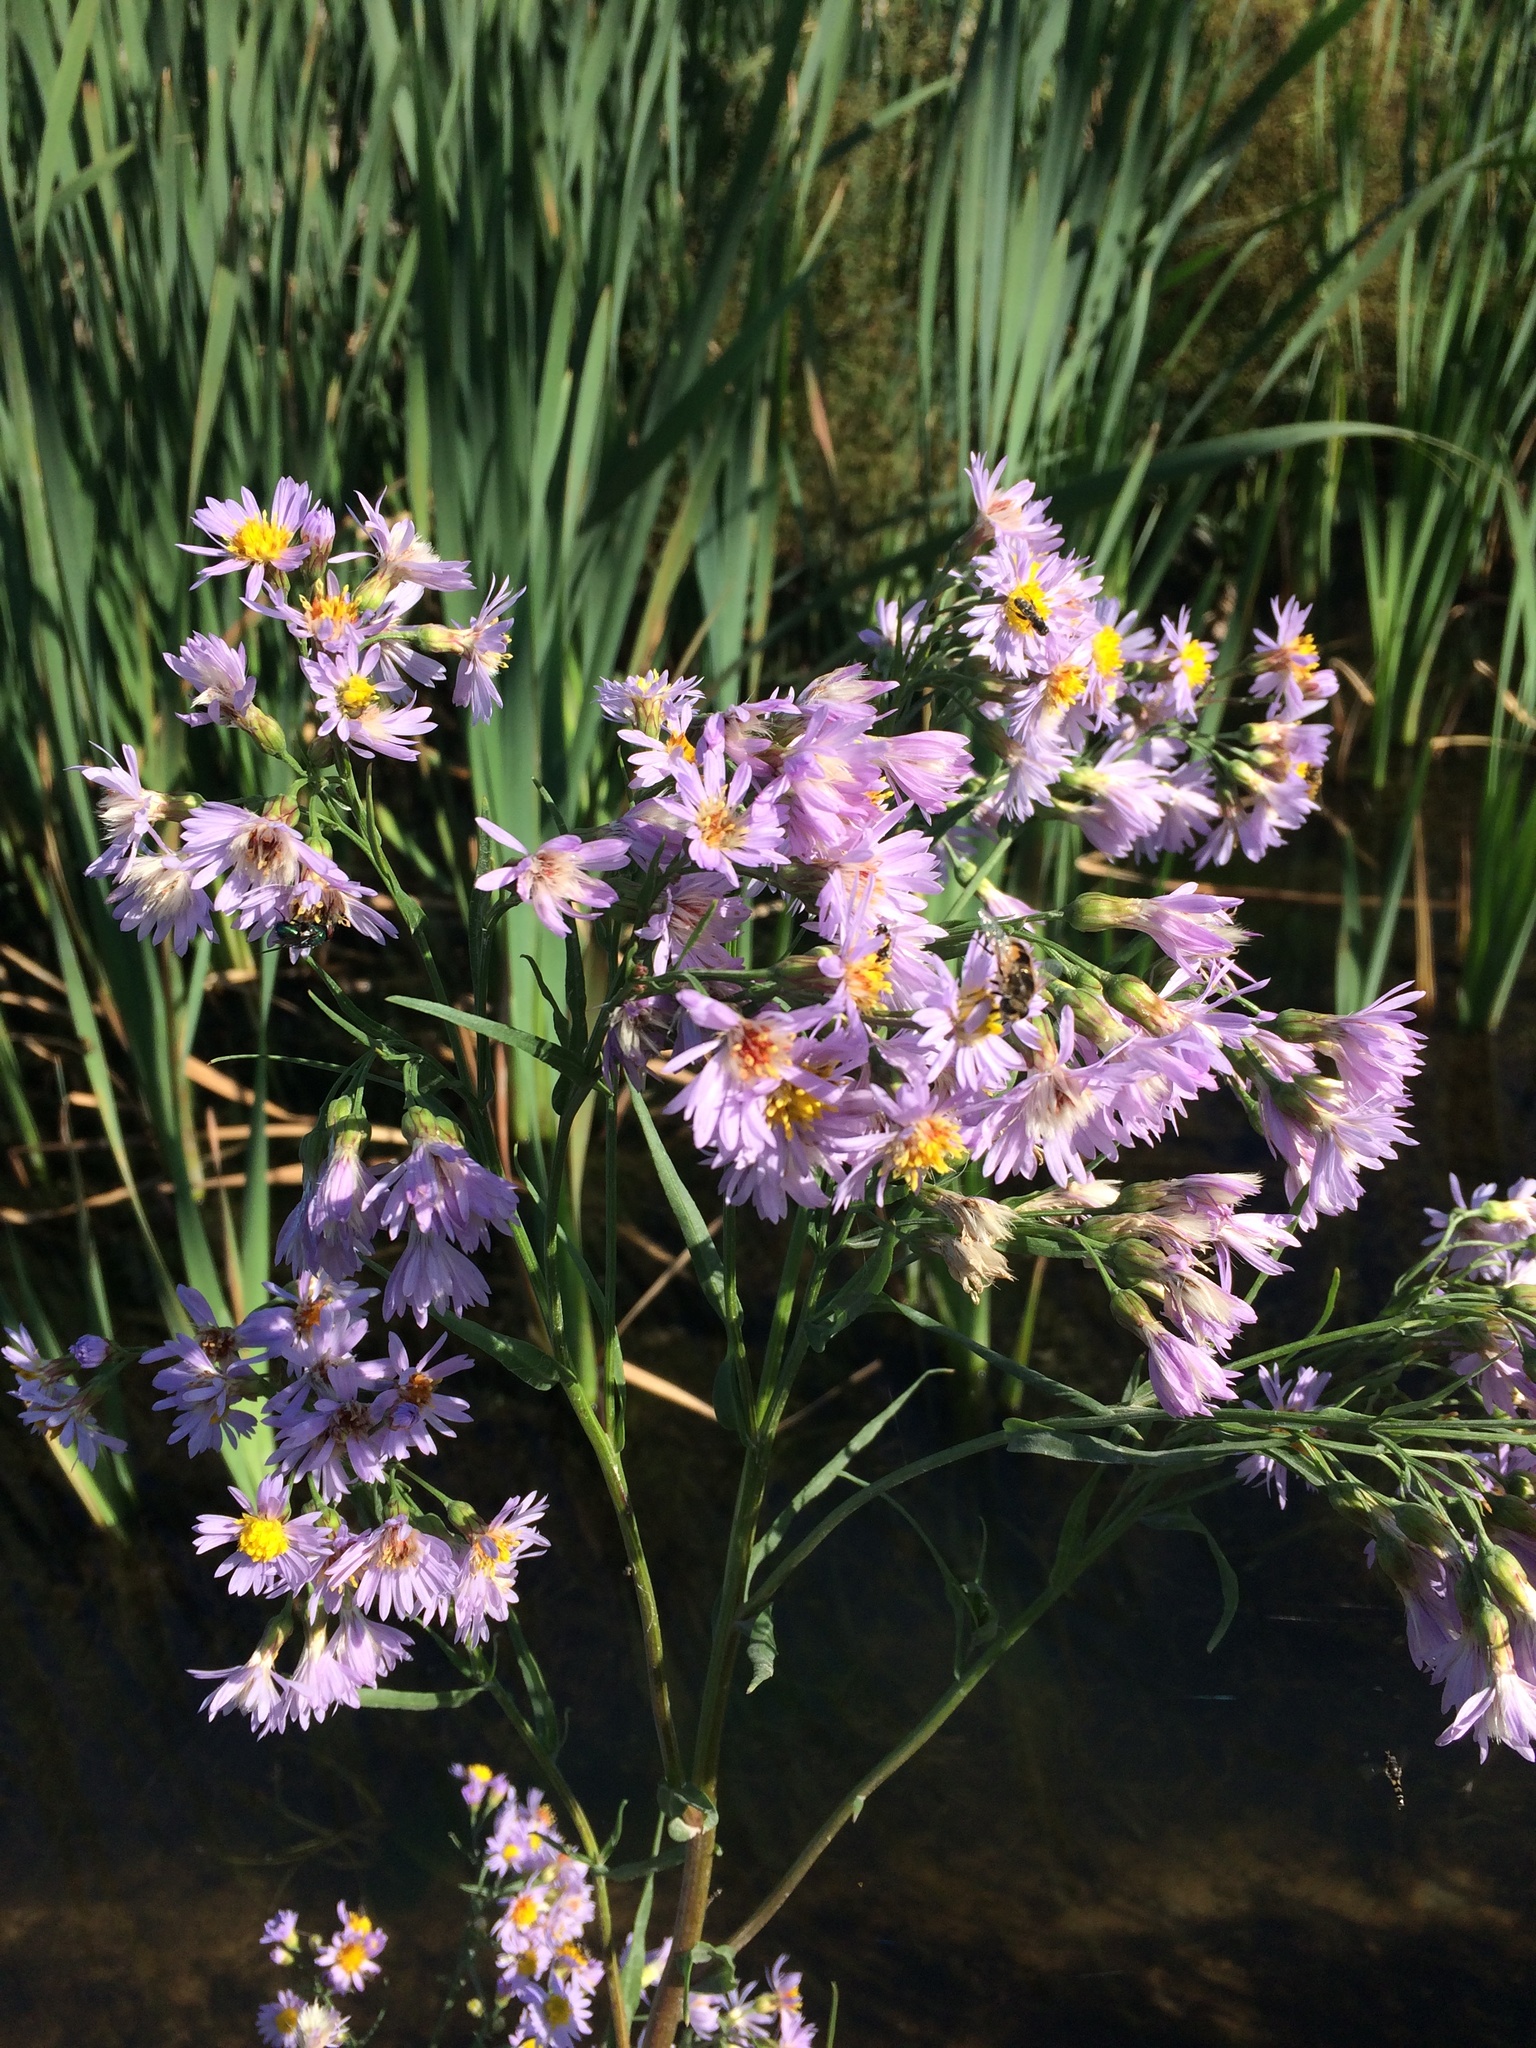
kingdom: Plantae
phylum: Tracheophyta
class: Magnoliopsida
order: Asterales
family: Asteraceae
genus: Tripolium
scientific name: Tripolium pannonicum
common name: Sea aster
